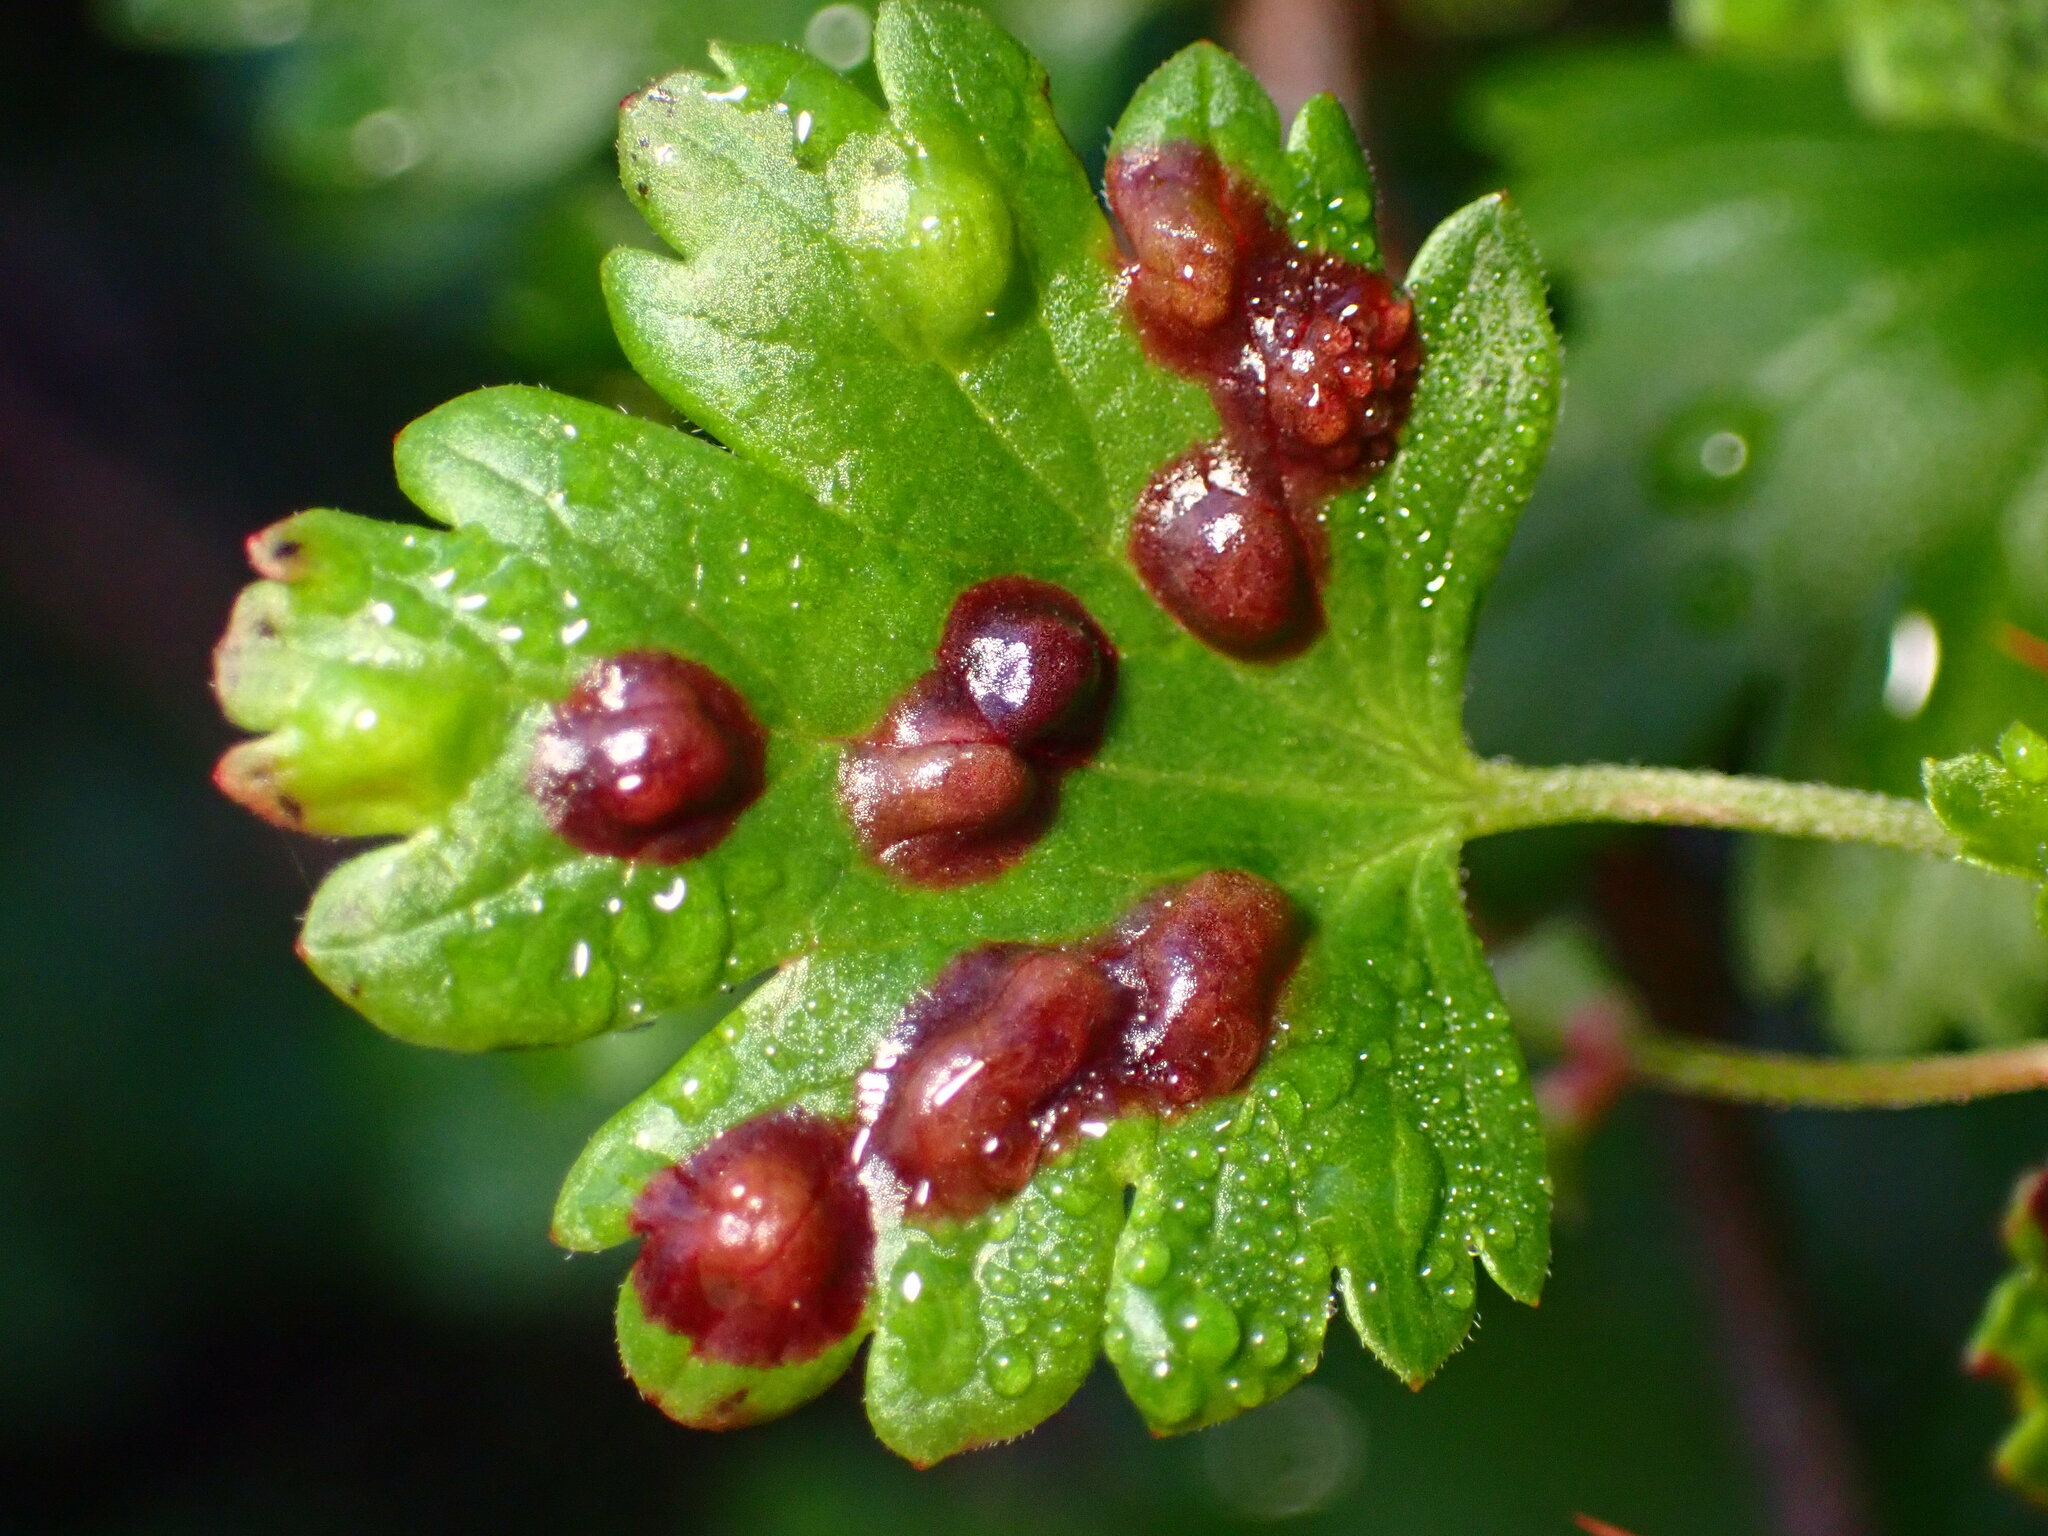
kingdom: Animalia
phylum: Arthropoda
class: Insecta
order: Diptera
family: Cecidomyiidae
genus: Ribesia
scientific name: Ribesia sarae
